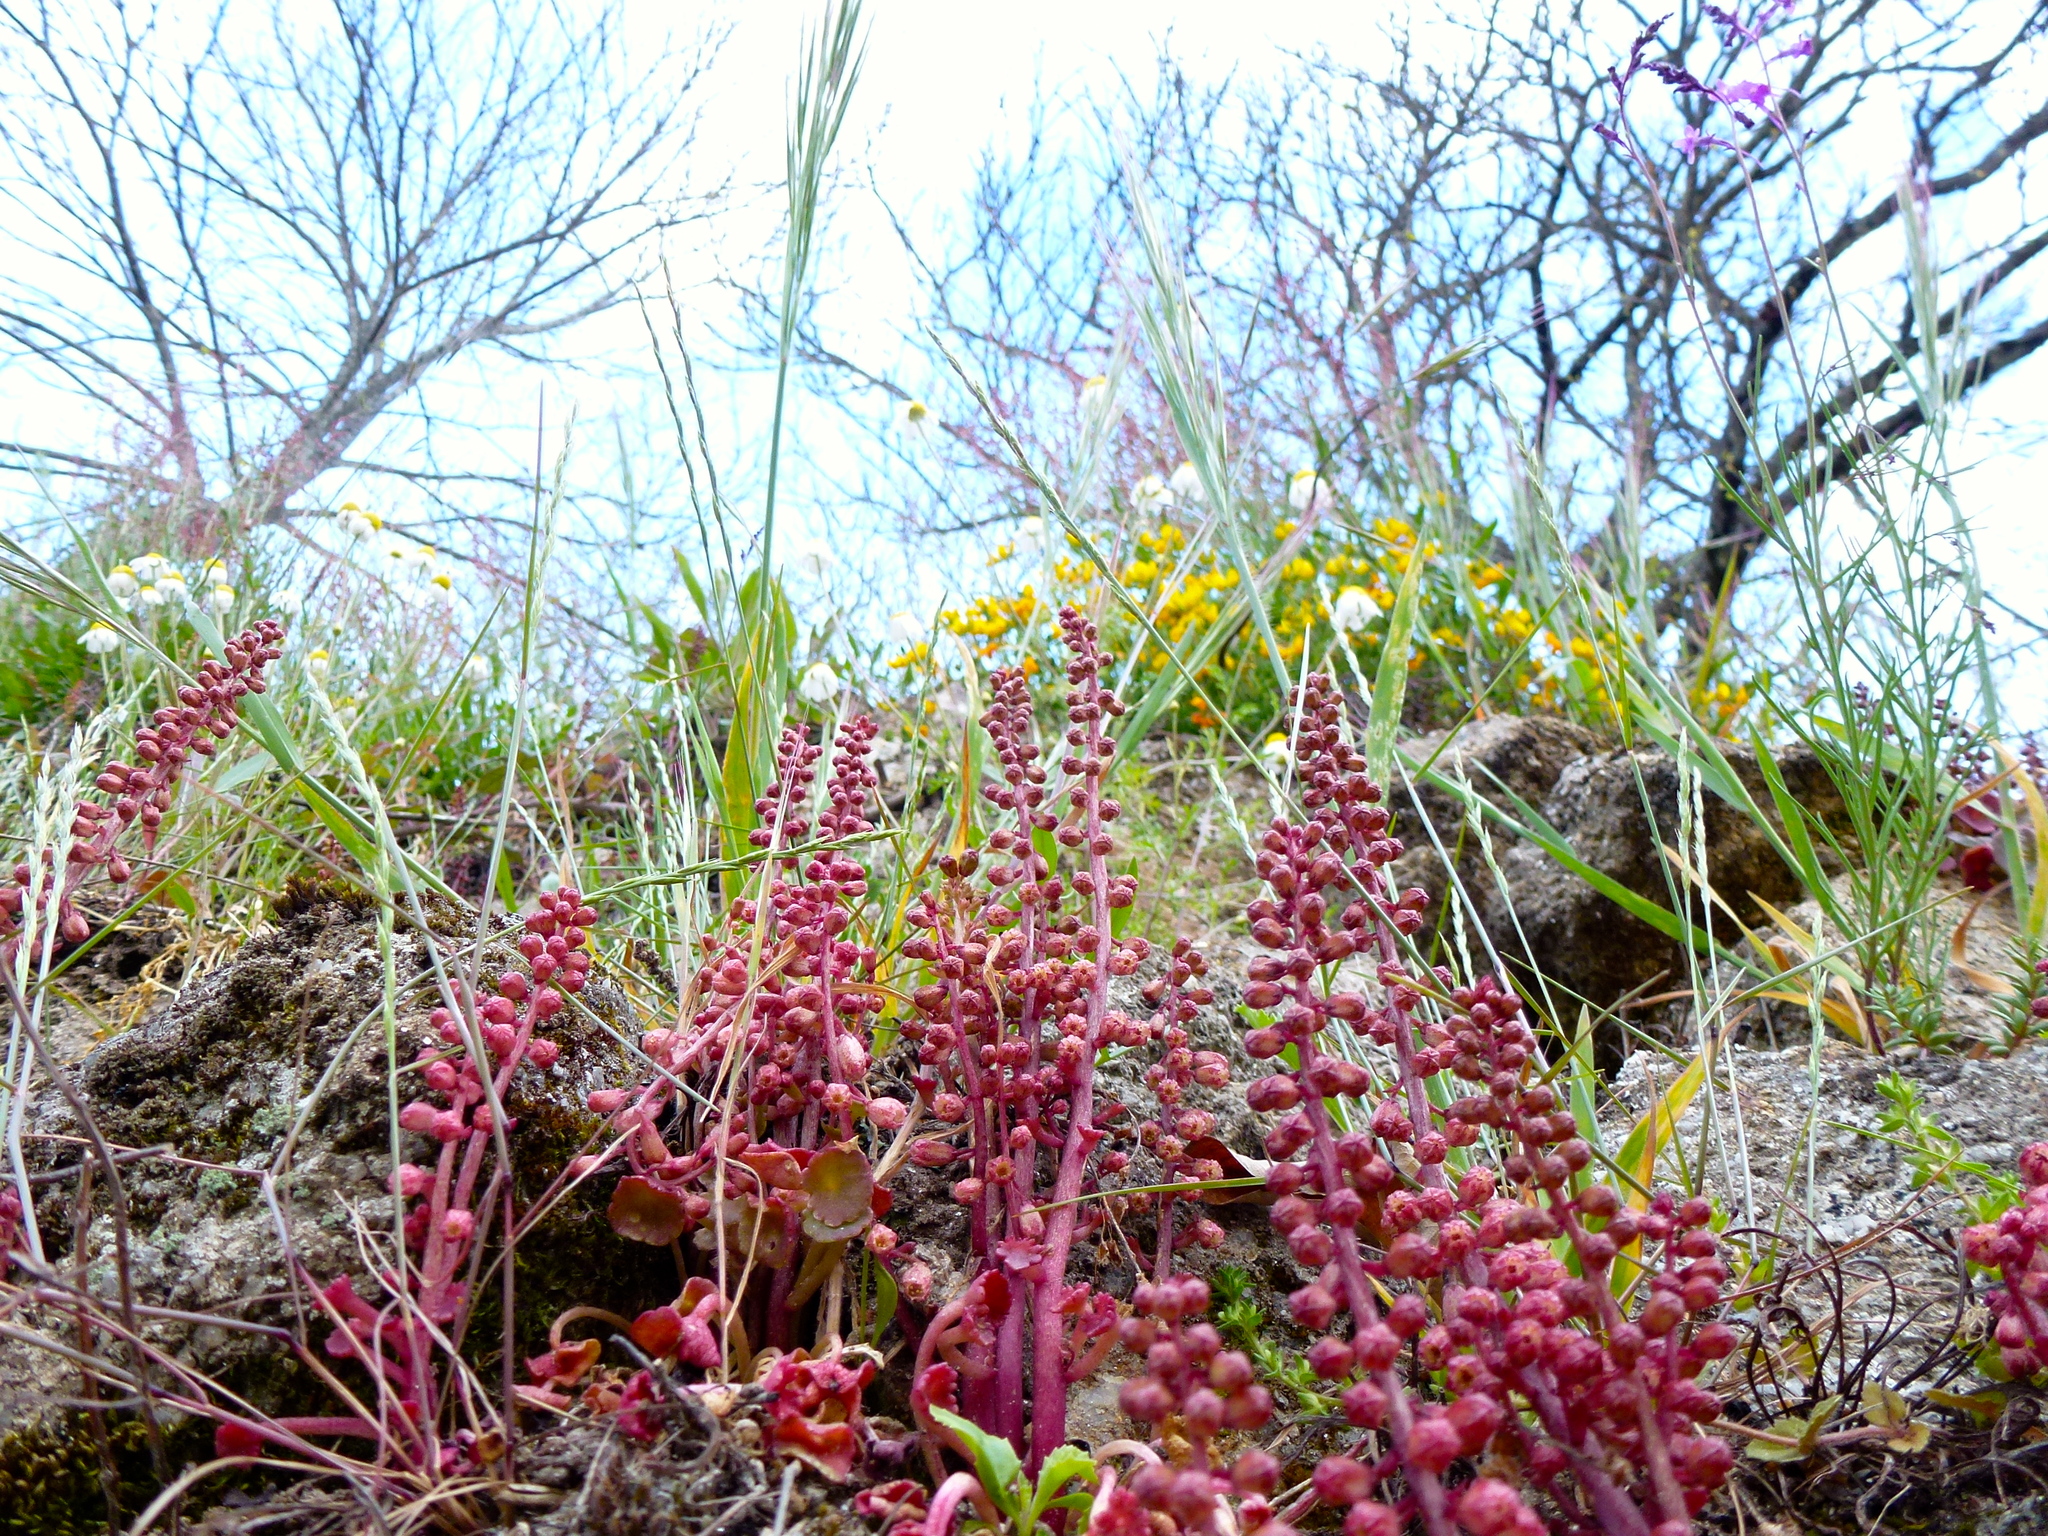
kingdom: Plantae
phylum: Tracheophyta
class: Magnoliopsida
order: Saxifragales
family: Crassulaceae
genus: Umbilicus
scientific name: Umbilicus rupestris
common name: Navelwort
